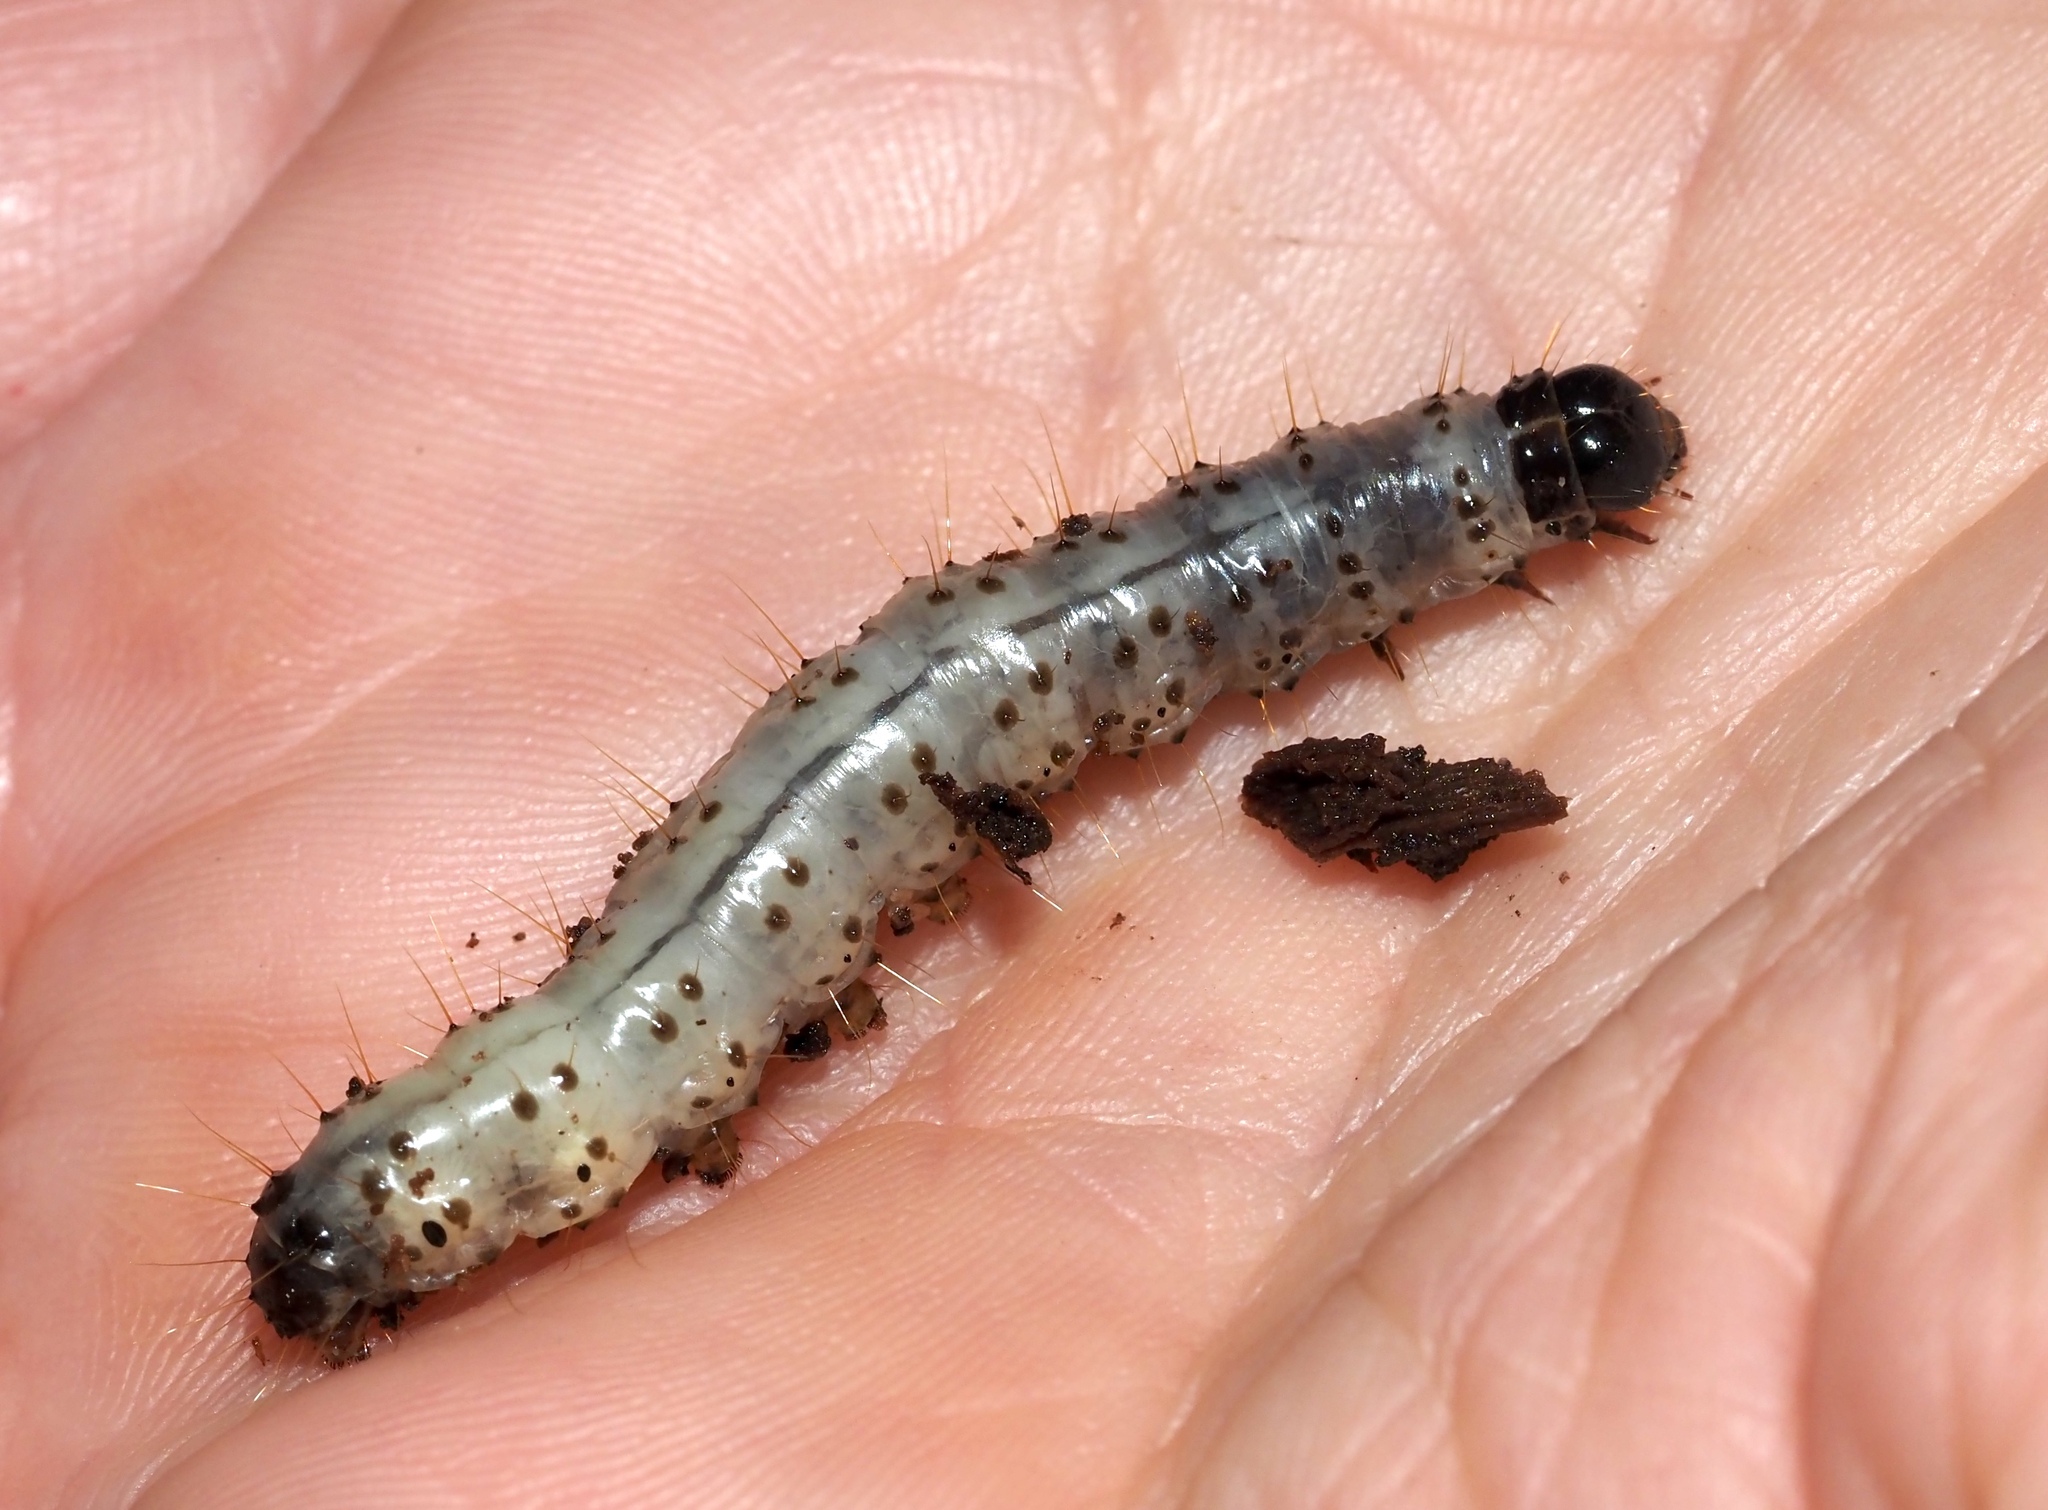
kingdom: Animalia
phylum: Arthropoda
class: Insecta
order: Lepidoptera
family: Erebidae
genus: Scolecocampa
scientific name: Scolecocampa liburna
